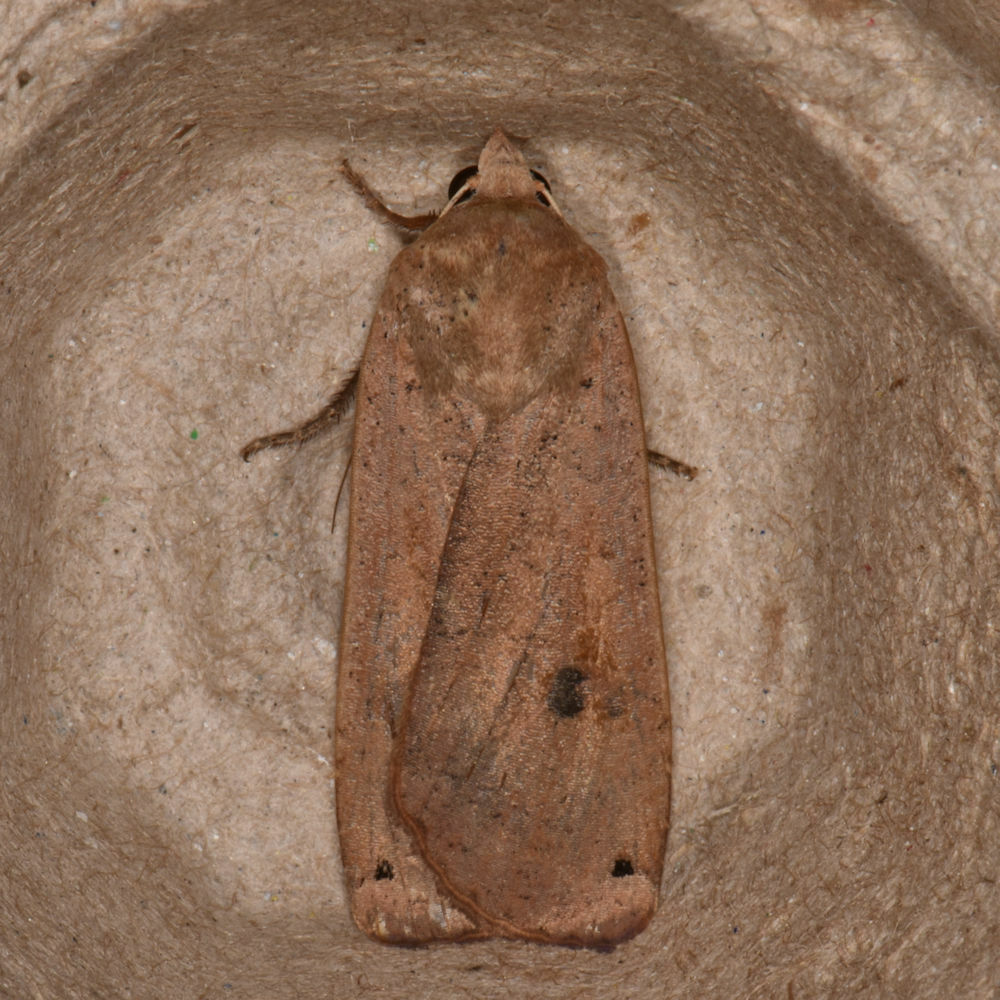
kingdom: Animalia
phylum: Arthropoda
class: Insecta
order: Lepidoptera
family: Noctuidae
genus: Noctua
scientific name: Noctua pronuba
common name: Large yellow underwing
